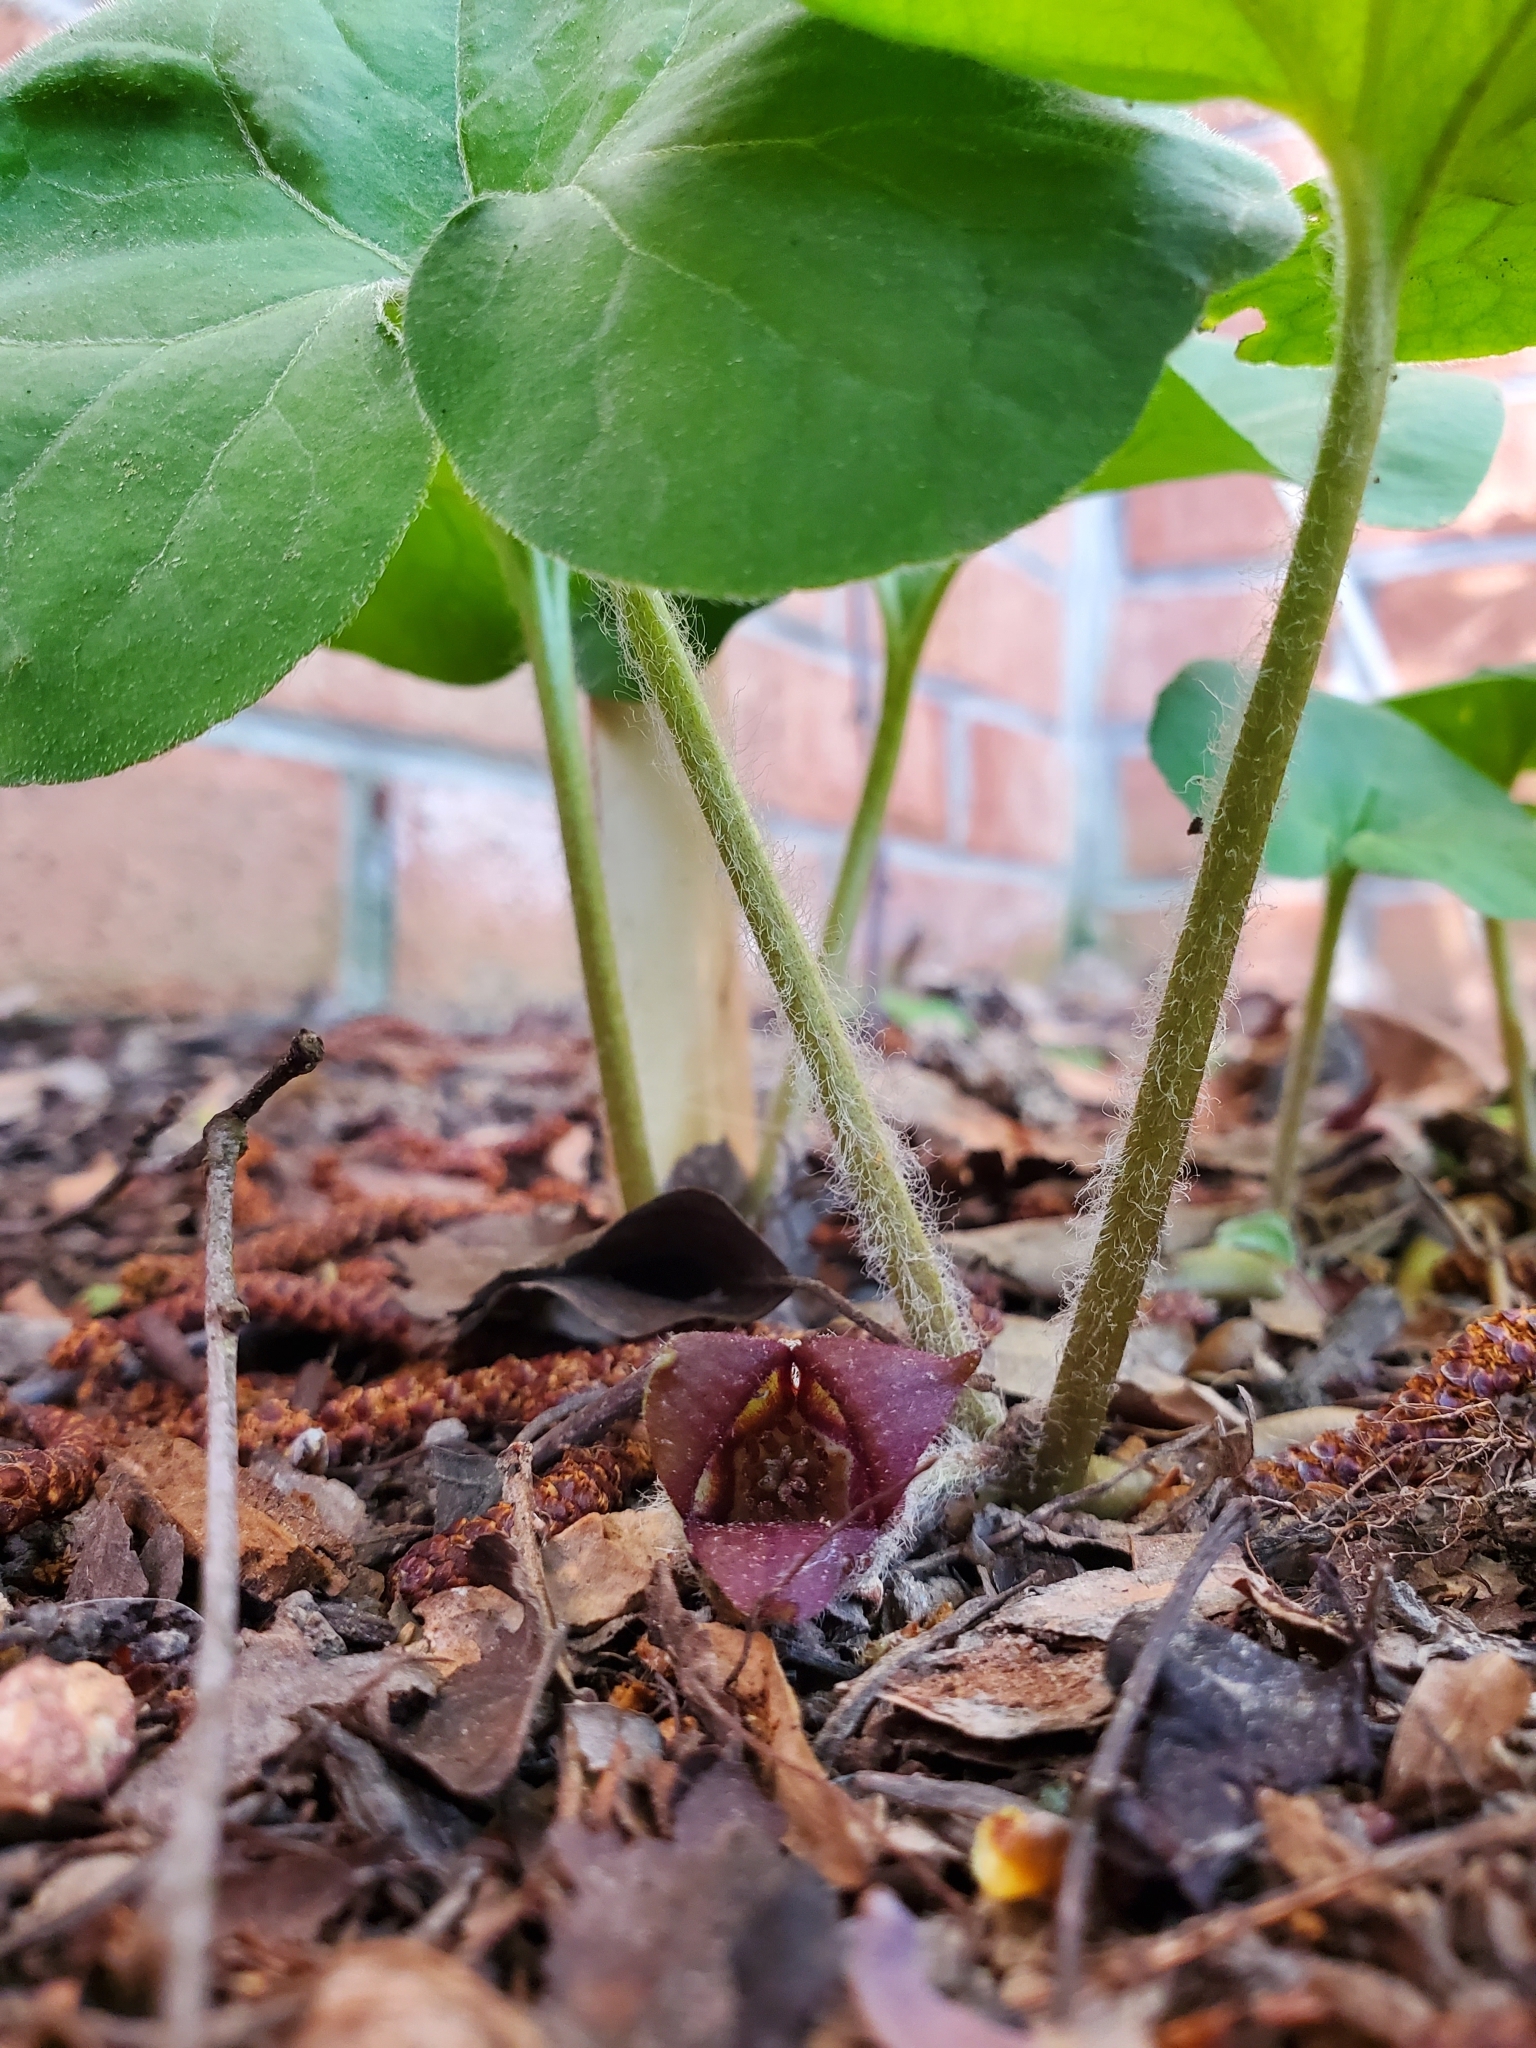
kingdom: Plantae
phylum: Tracheophyta
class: Magnoliopsida
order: Piperales
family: Aristolochiaceae
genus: Asarum
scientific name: Asarum canadense
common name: Wild ginger
